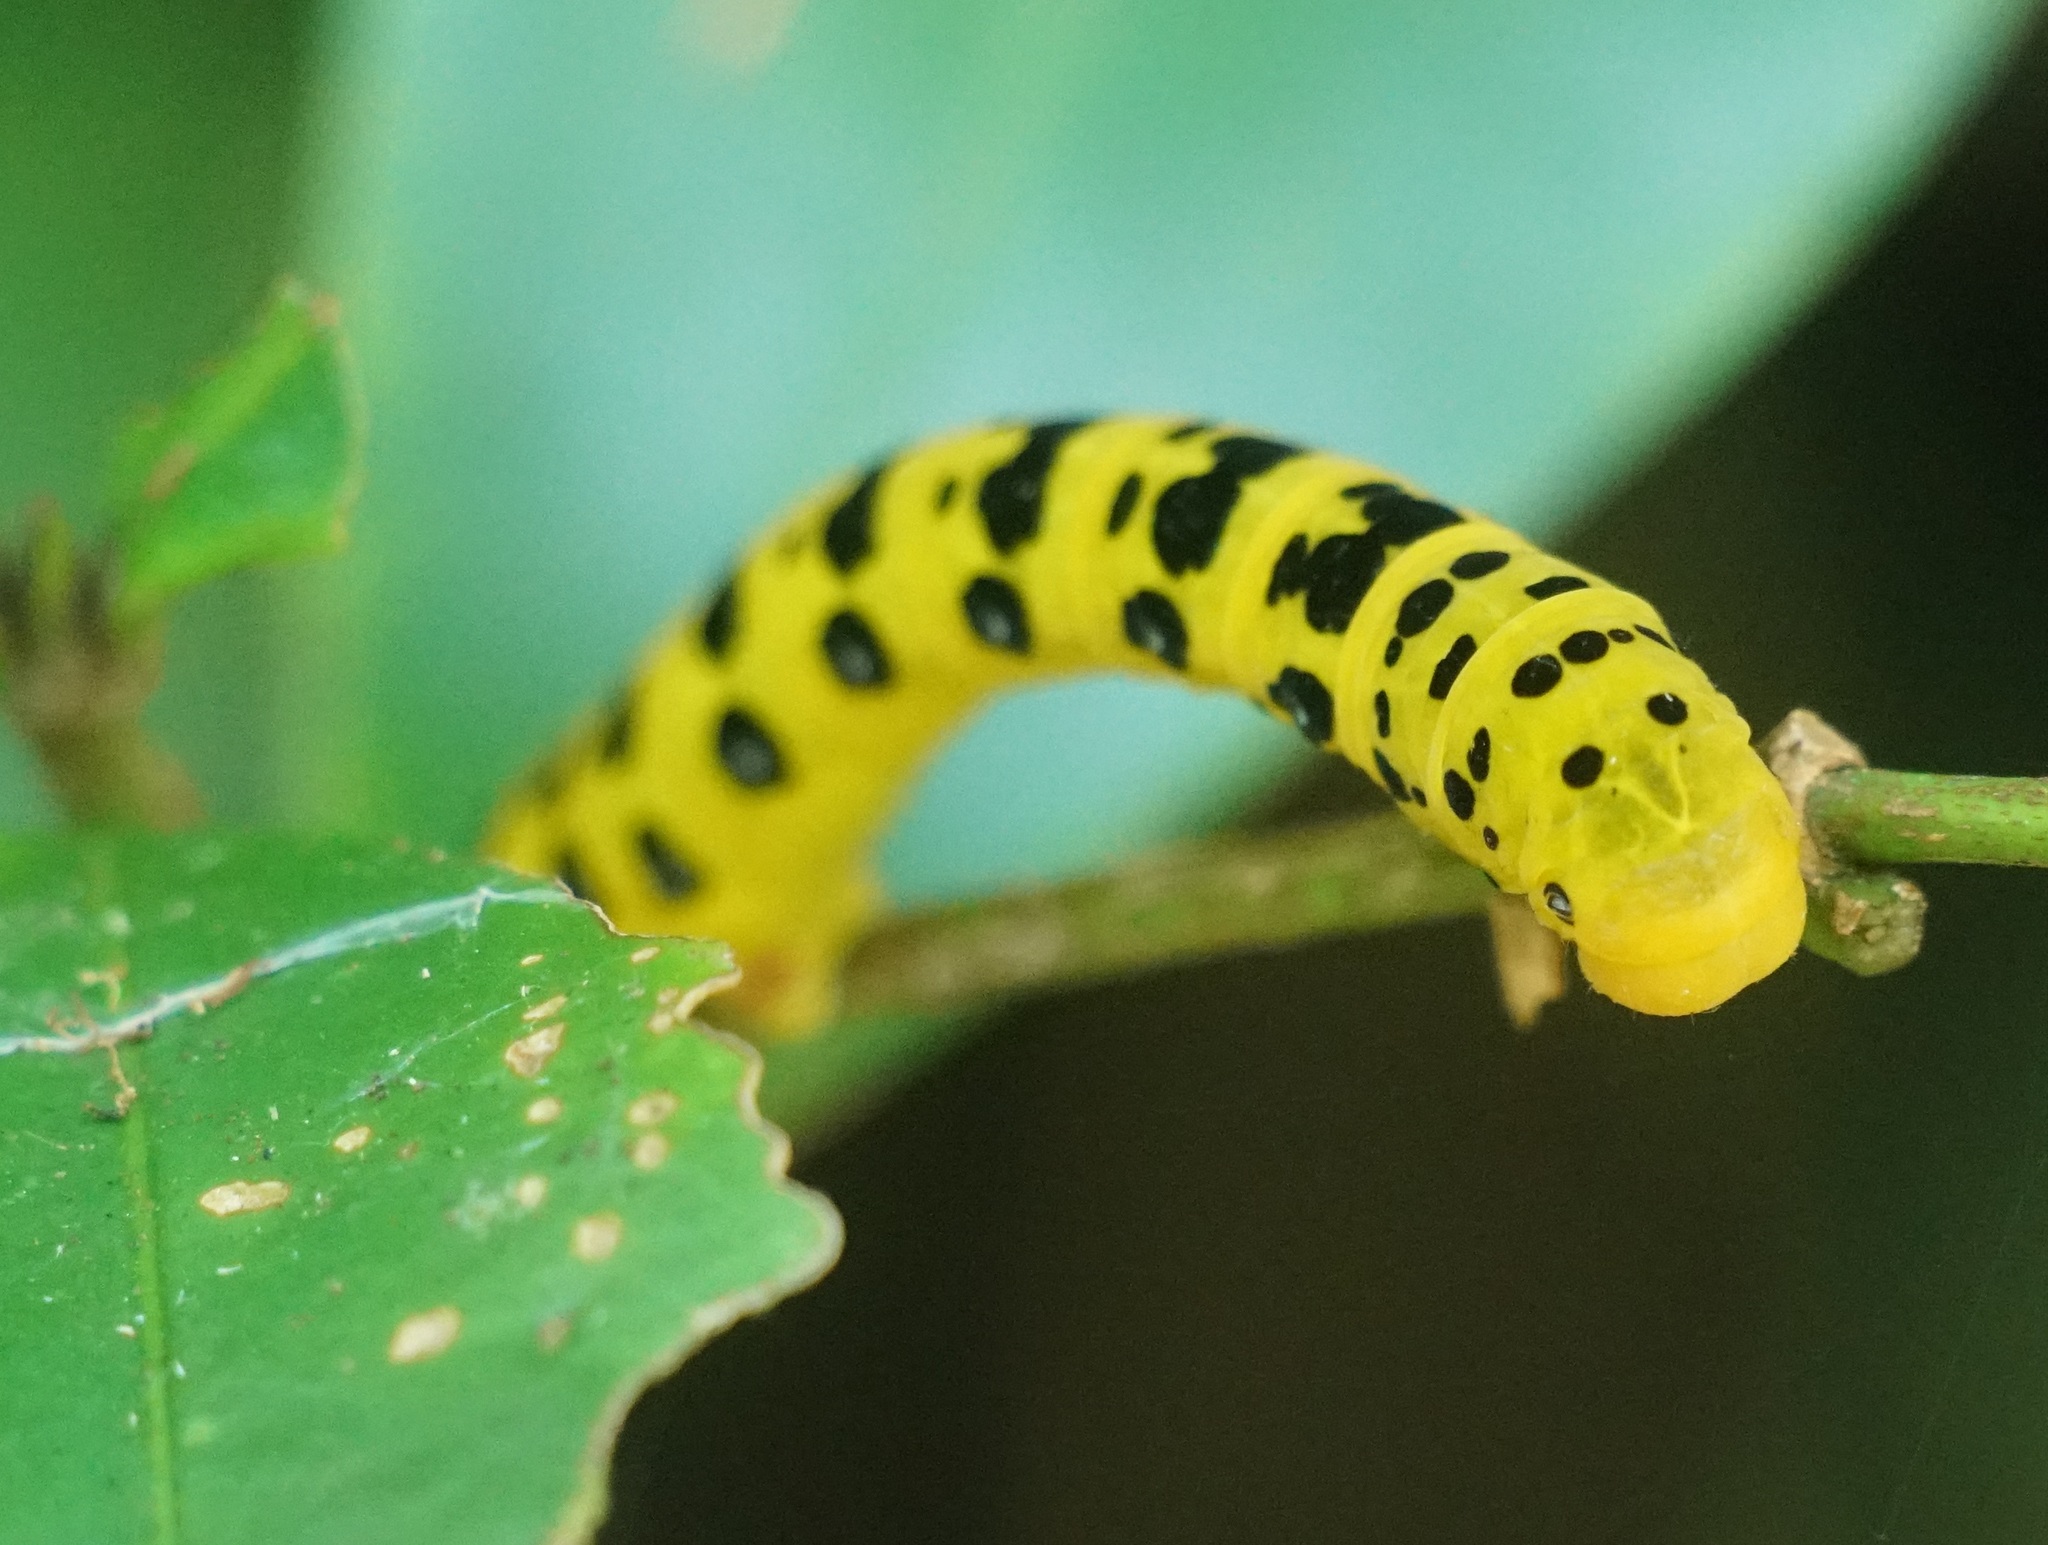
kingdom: Animalia
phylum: Arthropoda
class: Insecta
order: Lepidoptera
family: Geometridae
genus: Dysphania
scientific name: Dysphania numana
